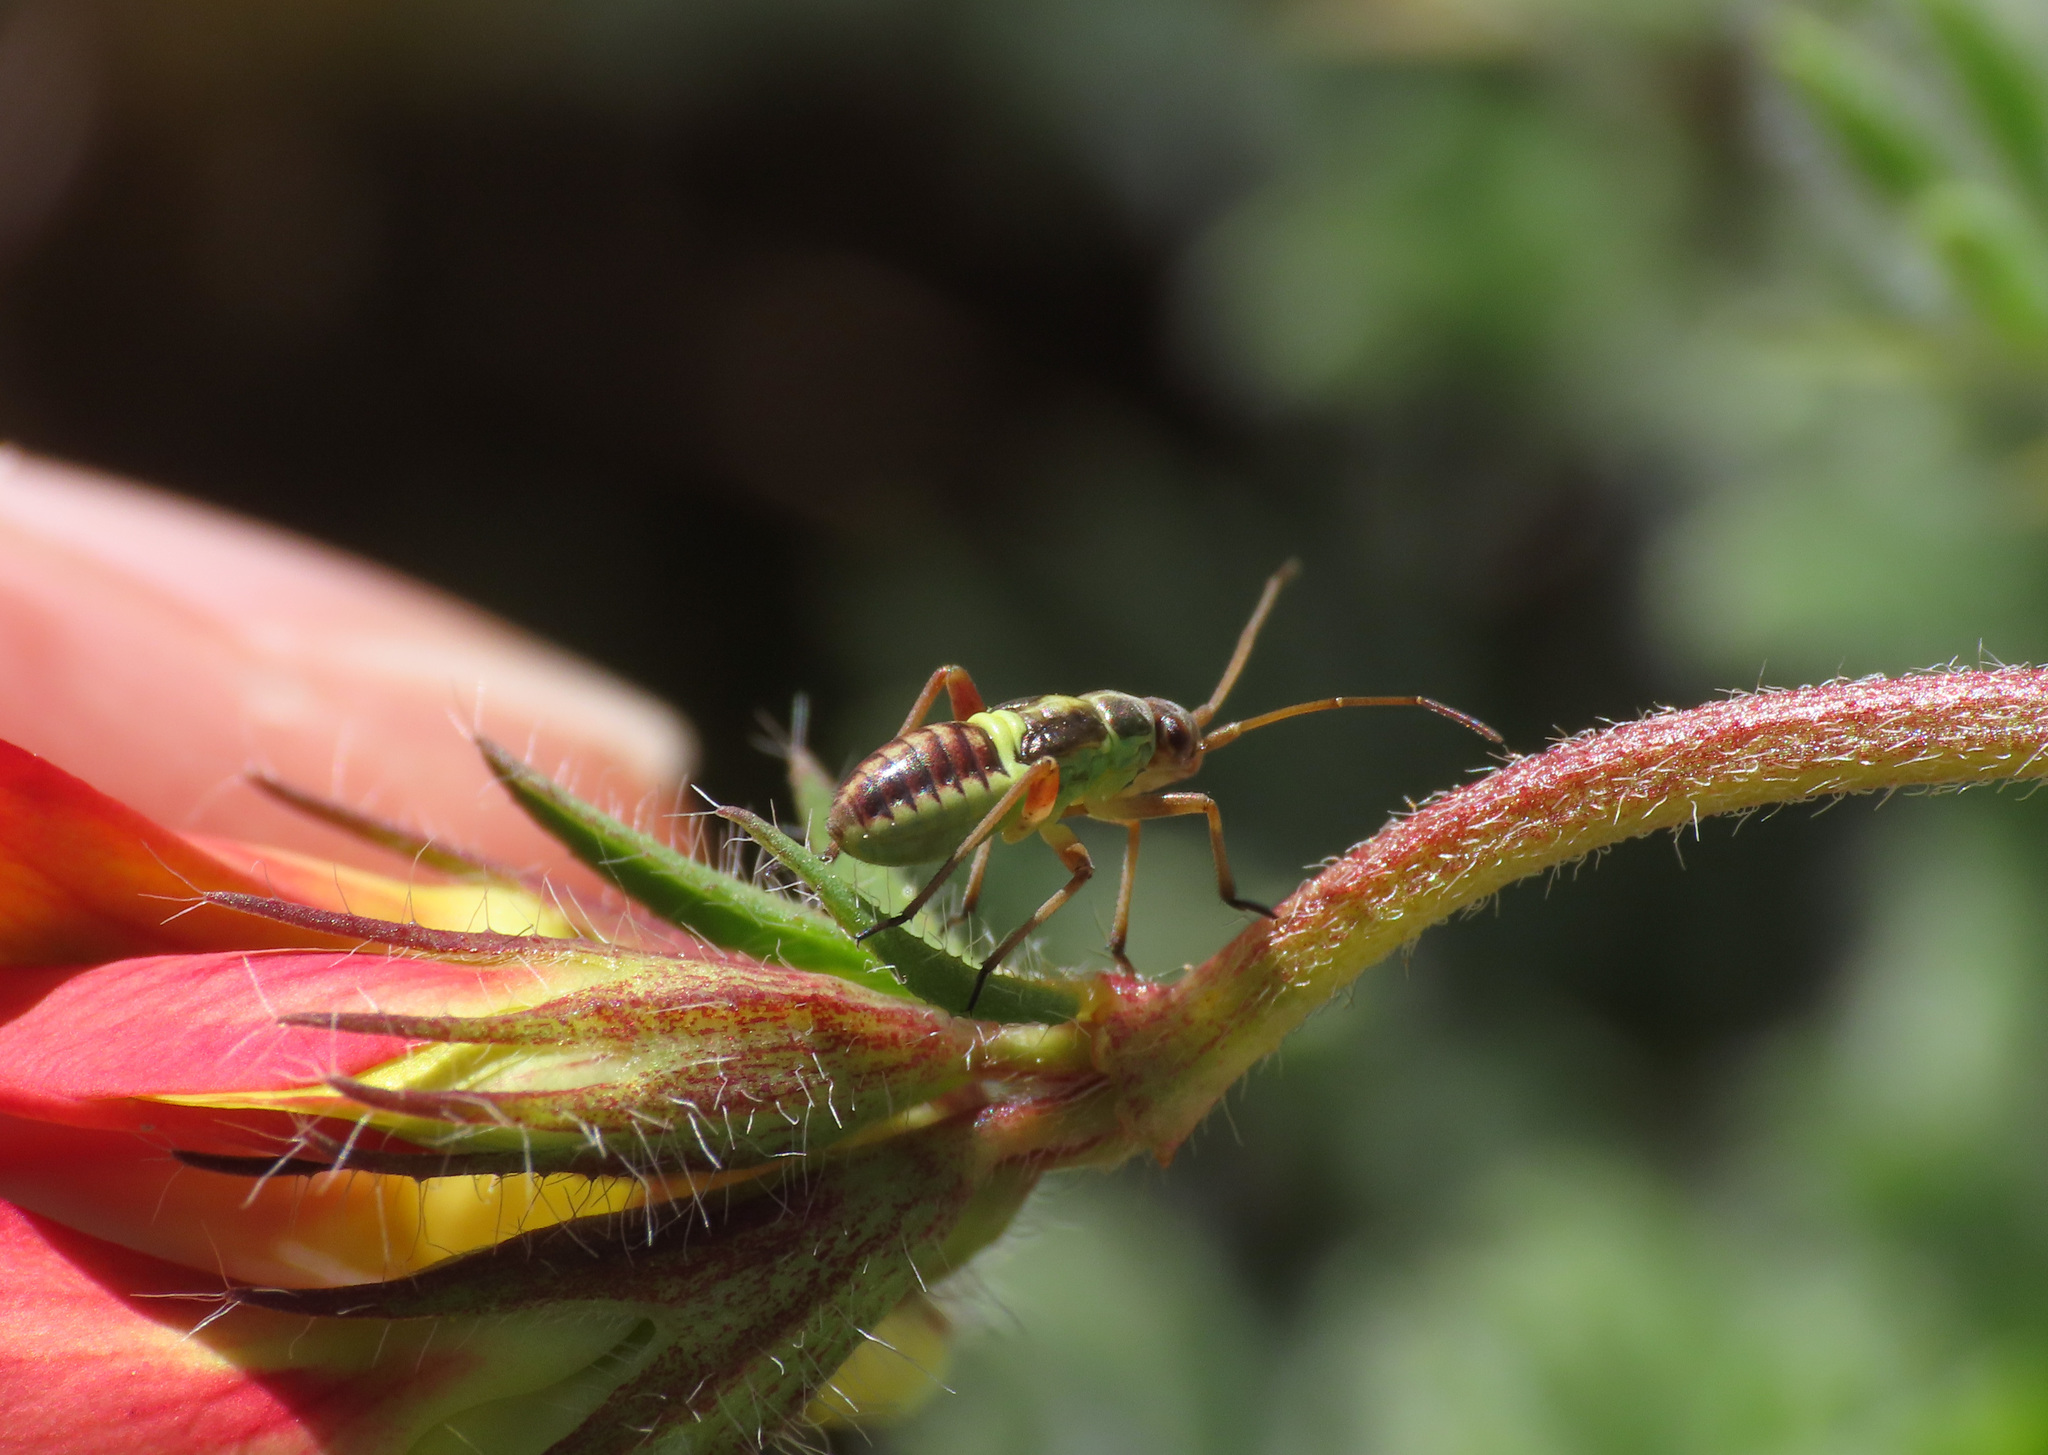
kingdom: Animalia
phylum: Arthropoda
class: Insecta
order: Hemiptera
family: Miridae
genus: Calocoris
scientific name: Calocoris roseomaculatus
